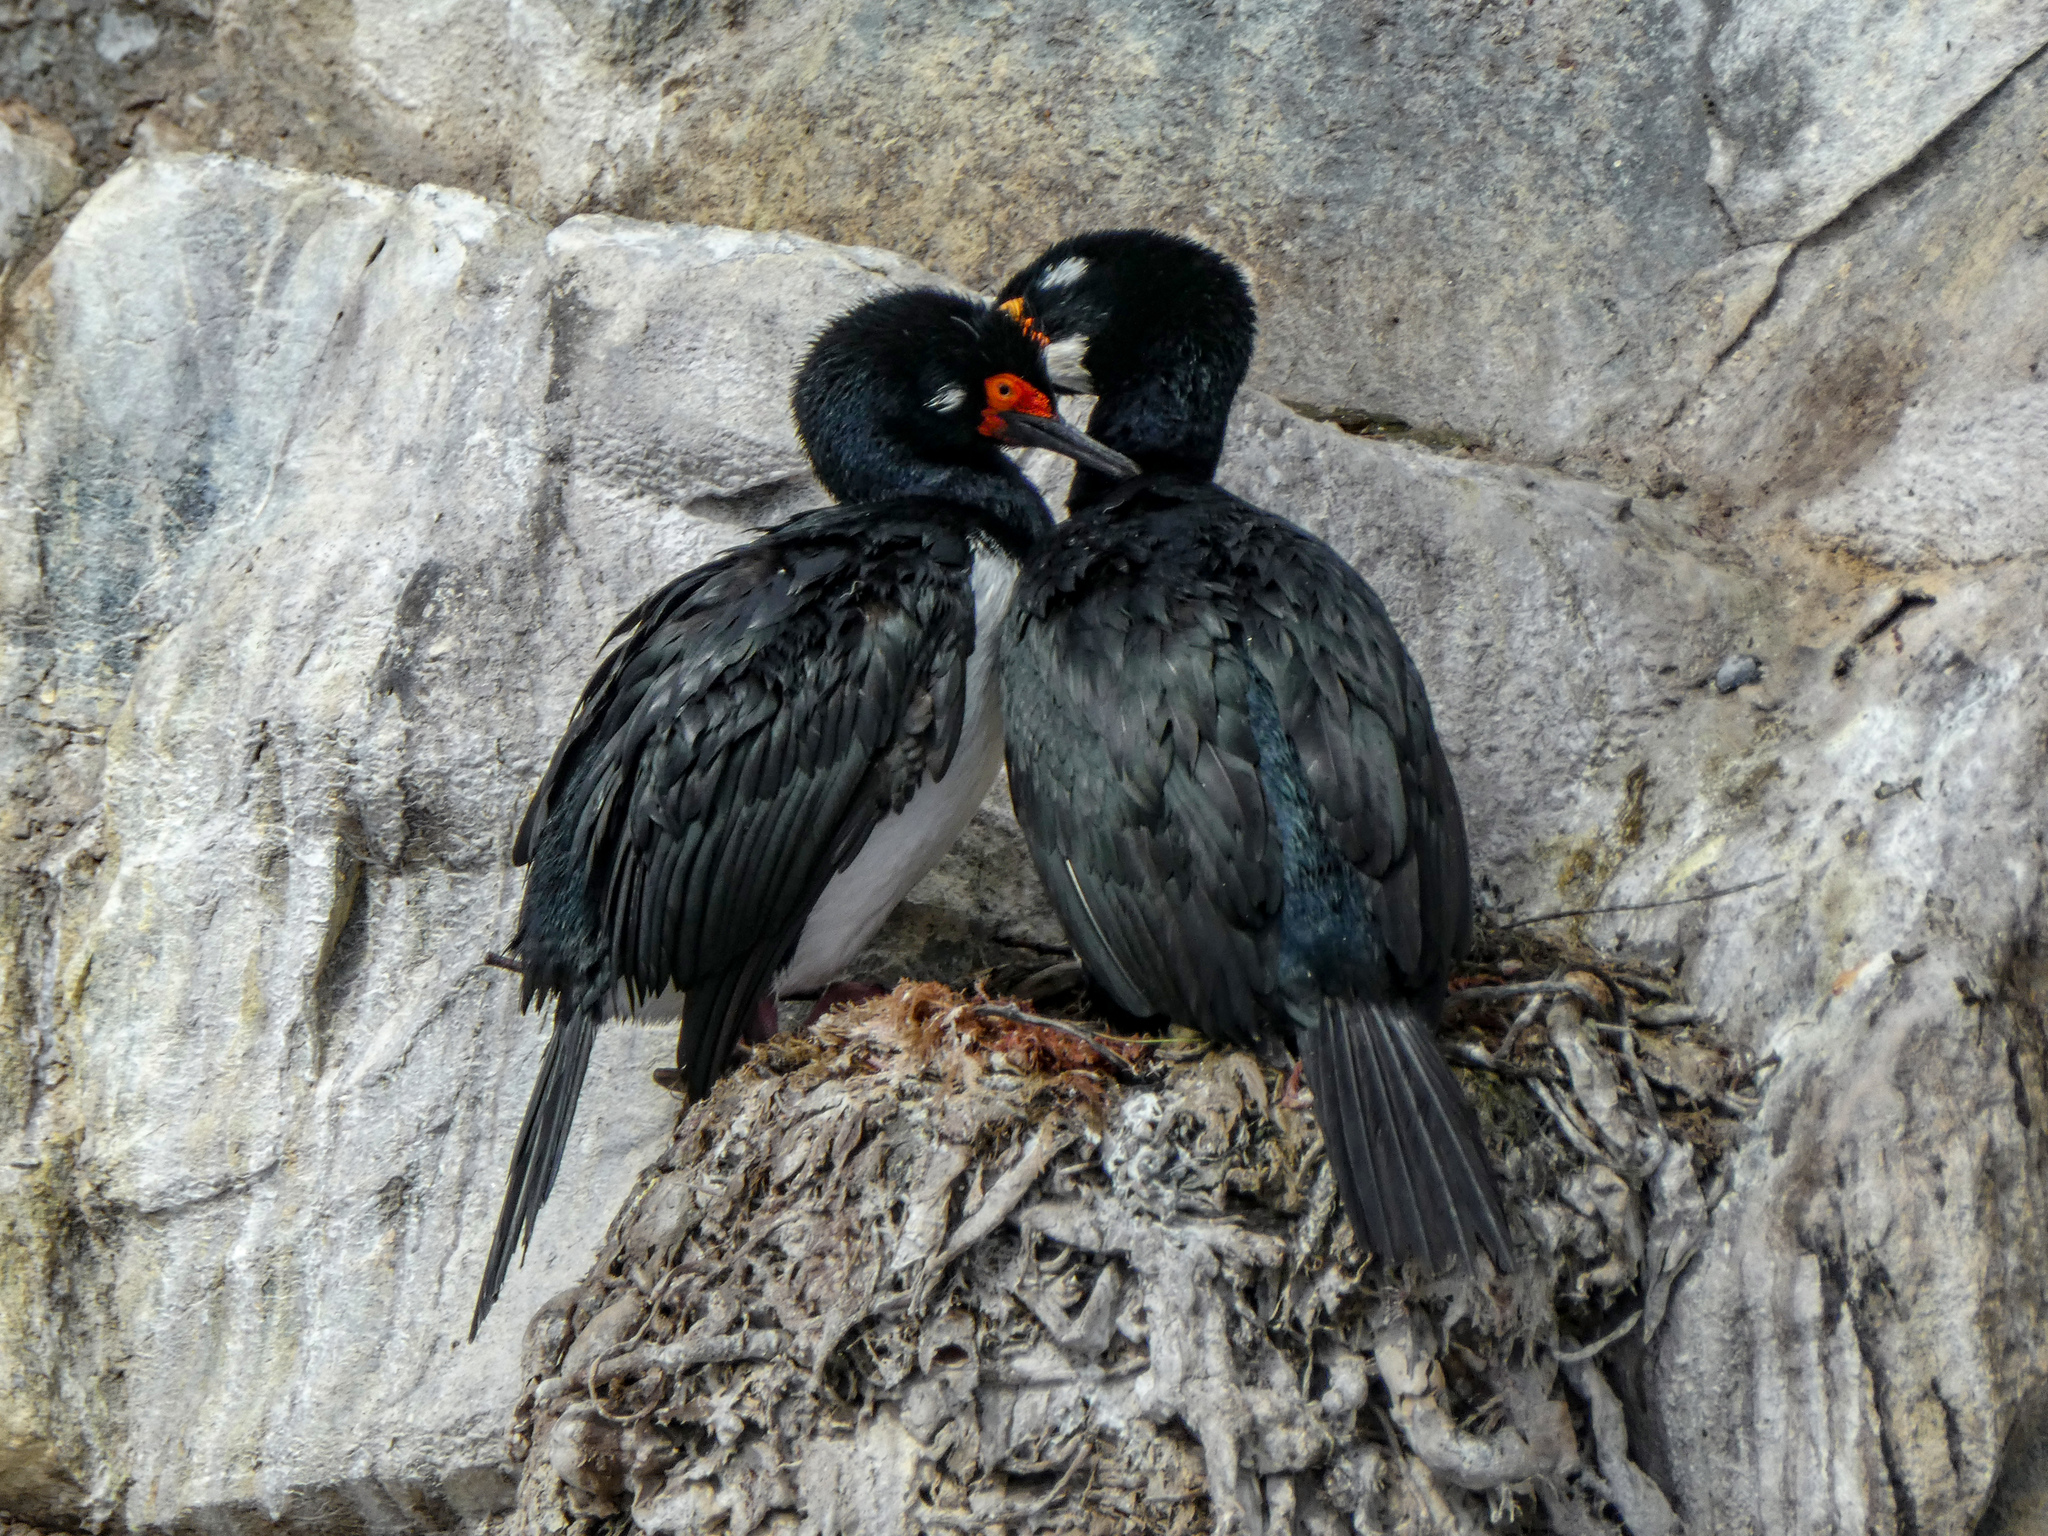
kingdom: Animalia
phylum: Chordata
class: Aves
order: Suliformes
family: Phalacrocoracidae
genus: Phalacrocorax
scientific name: Phalacrocorax magellanicus
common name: Rock shag
